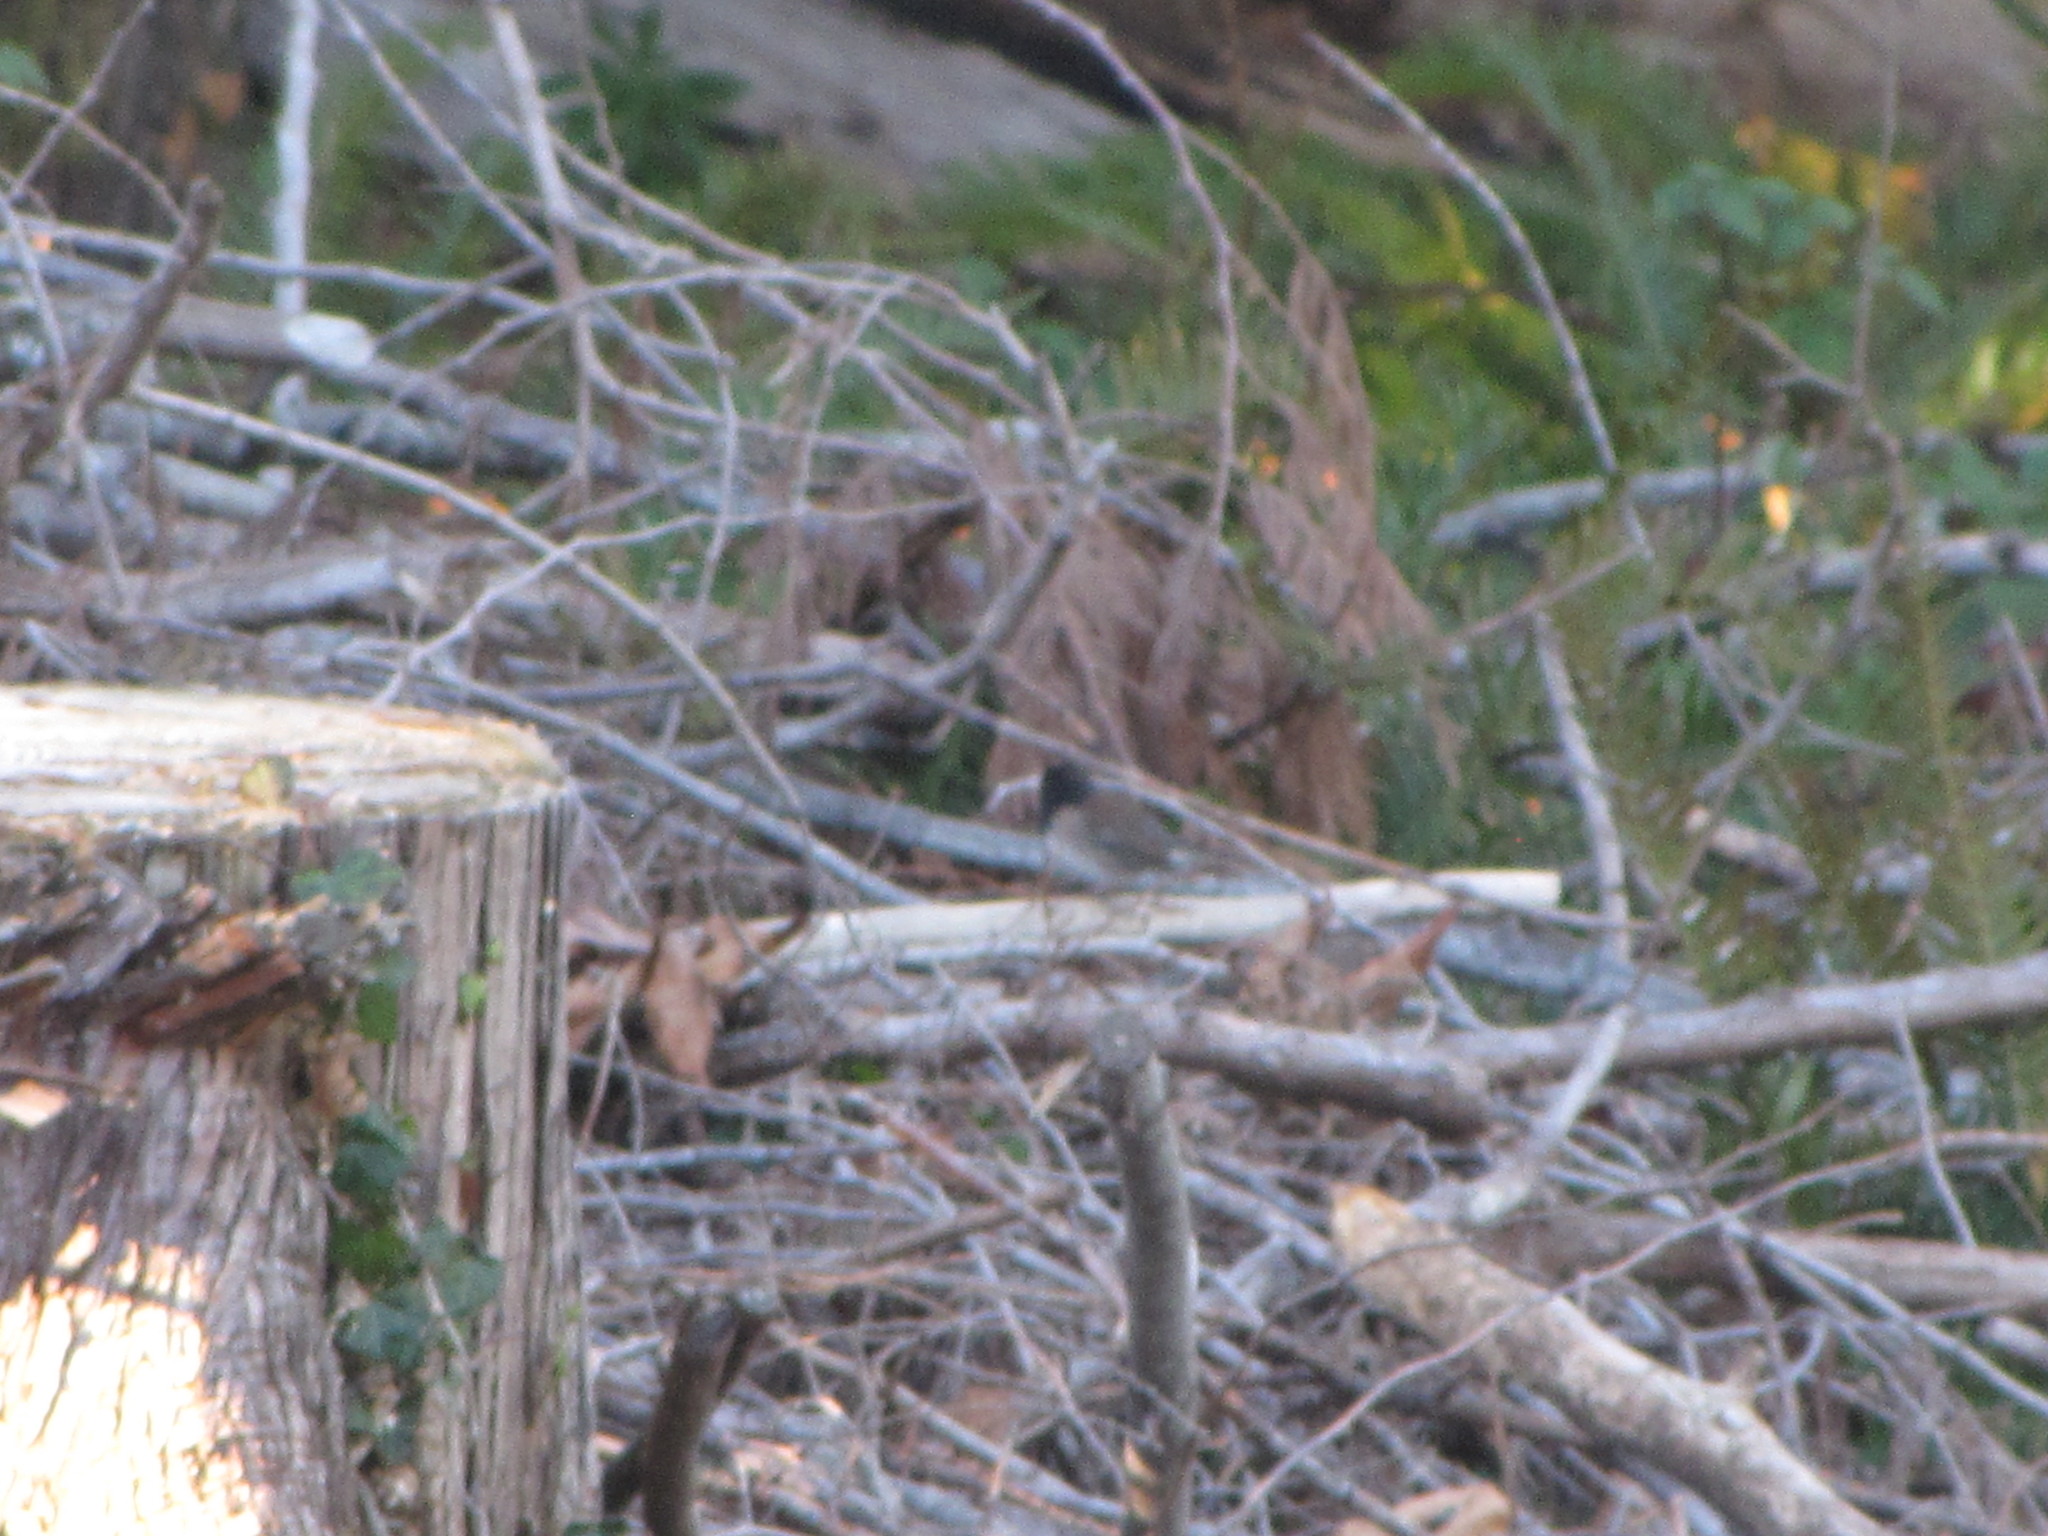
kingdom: Animalia
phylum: Chordata
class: Aves
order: Passeriformes
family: Passerellidae
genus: Junco
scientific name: Junco hyemalis
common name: Dark-eyed junco
